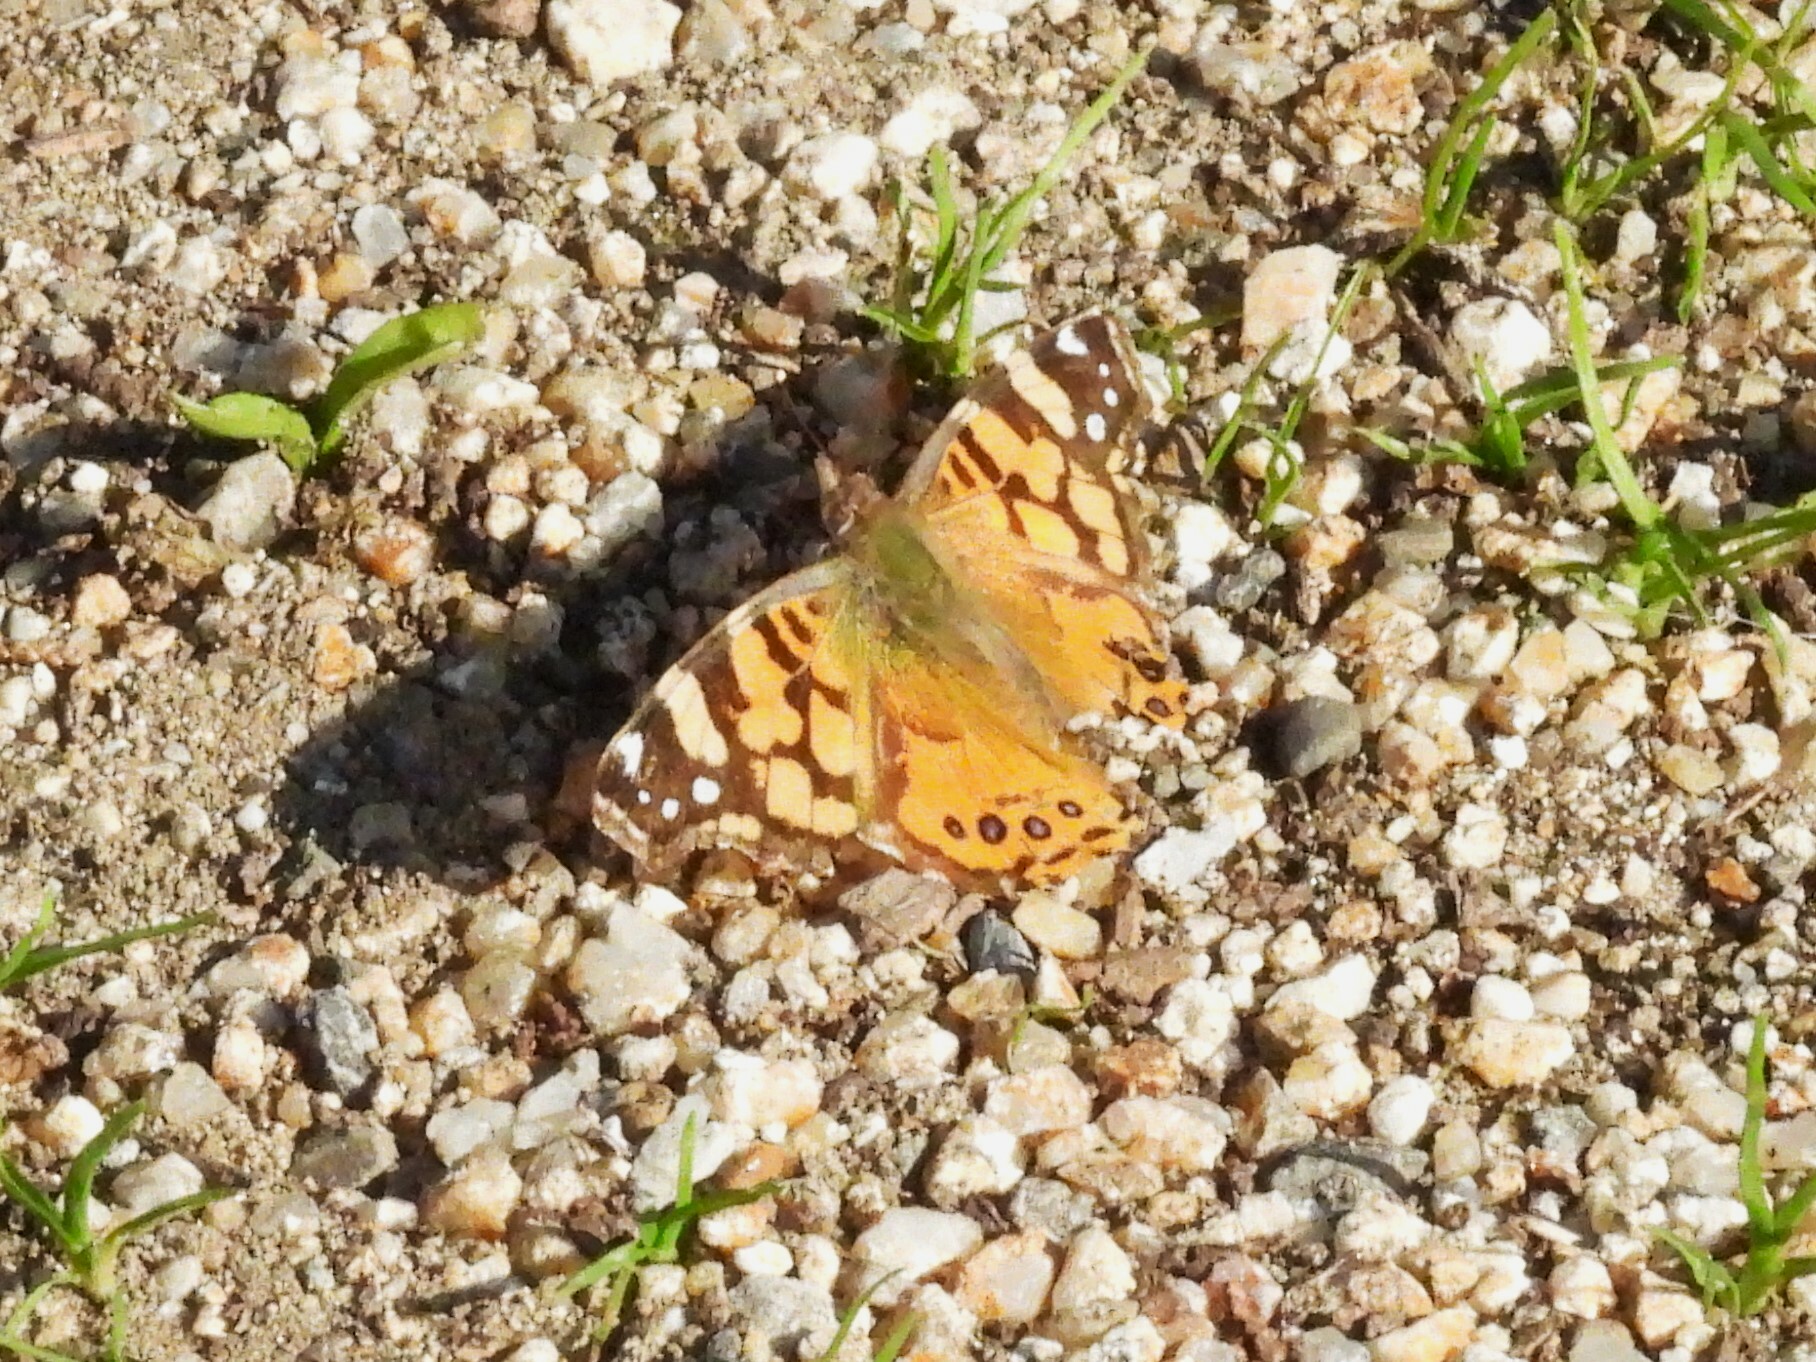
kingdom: Animalia
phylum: Arthropoda
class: Insecta
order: Lepidoptera
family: Nymphalidae
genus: Vanessa
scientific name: Vanessa annabella
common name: West coast lady
